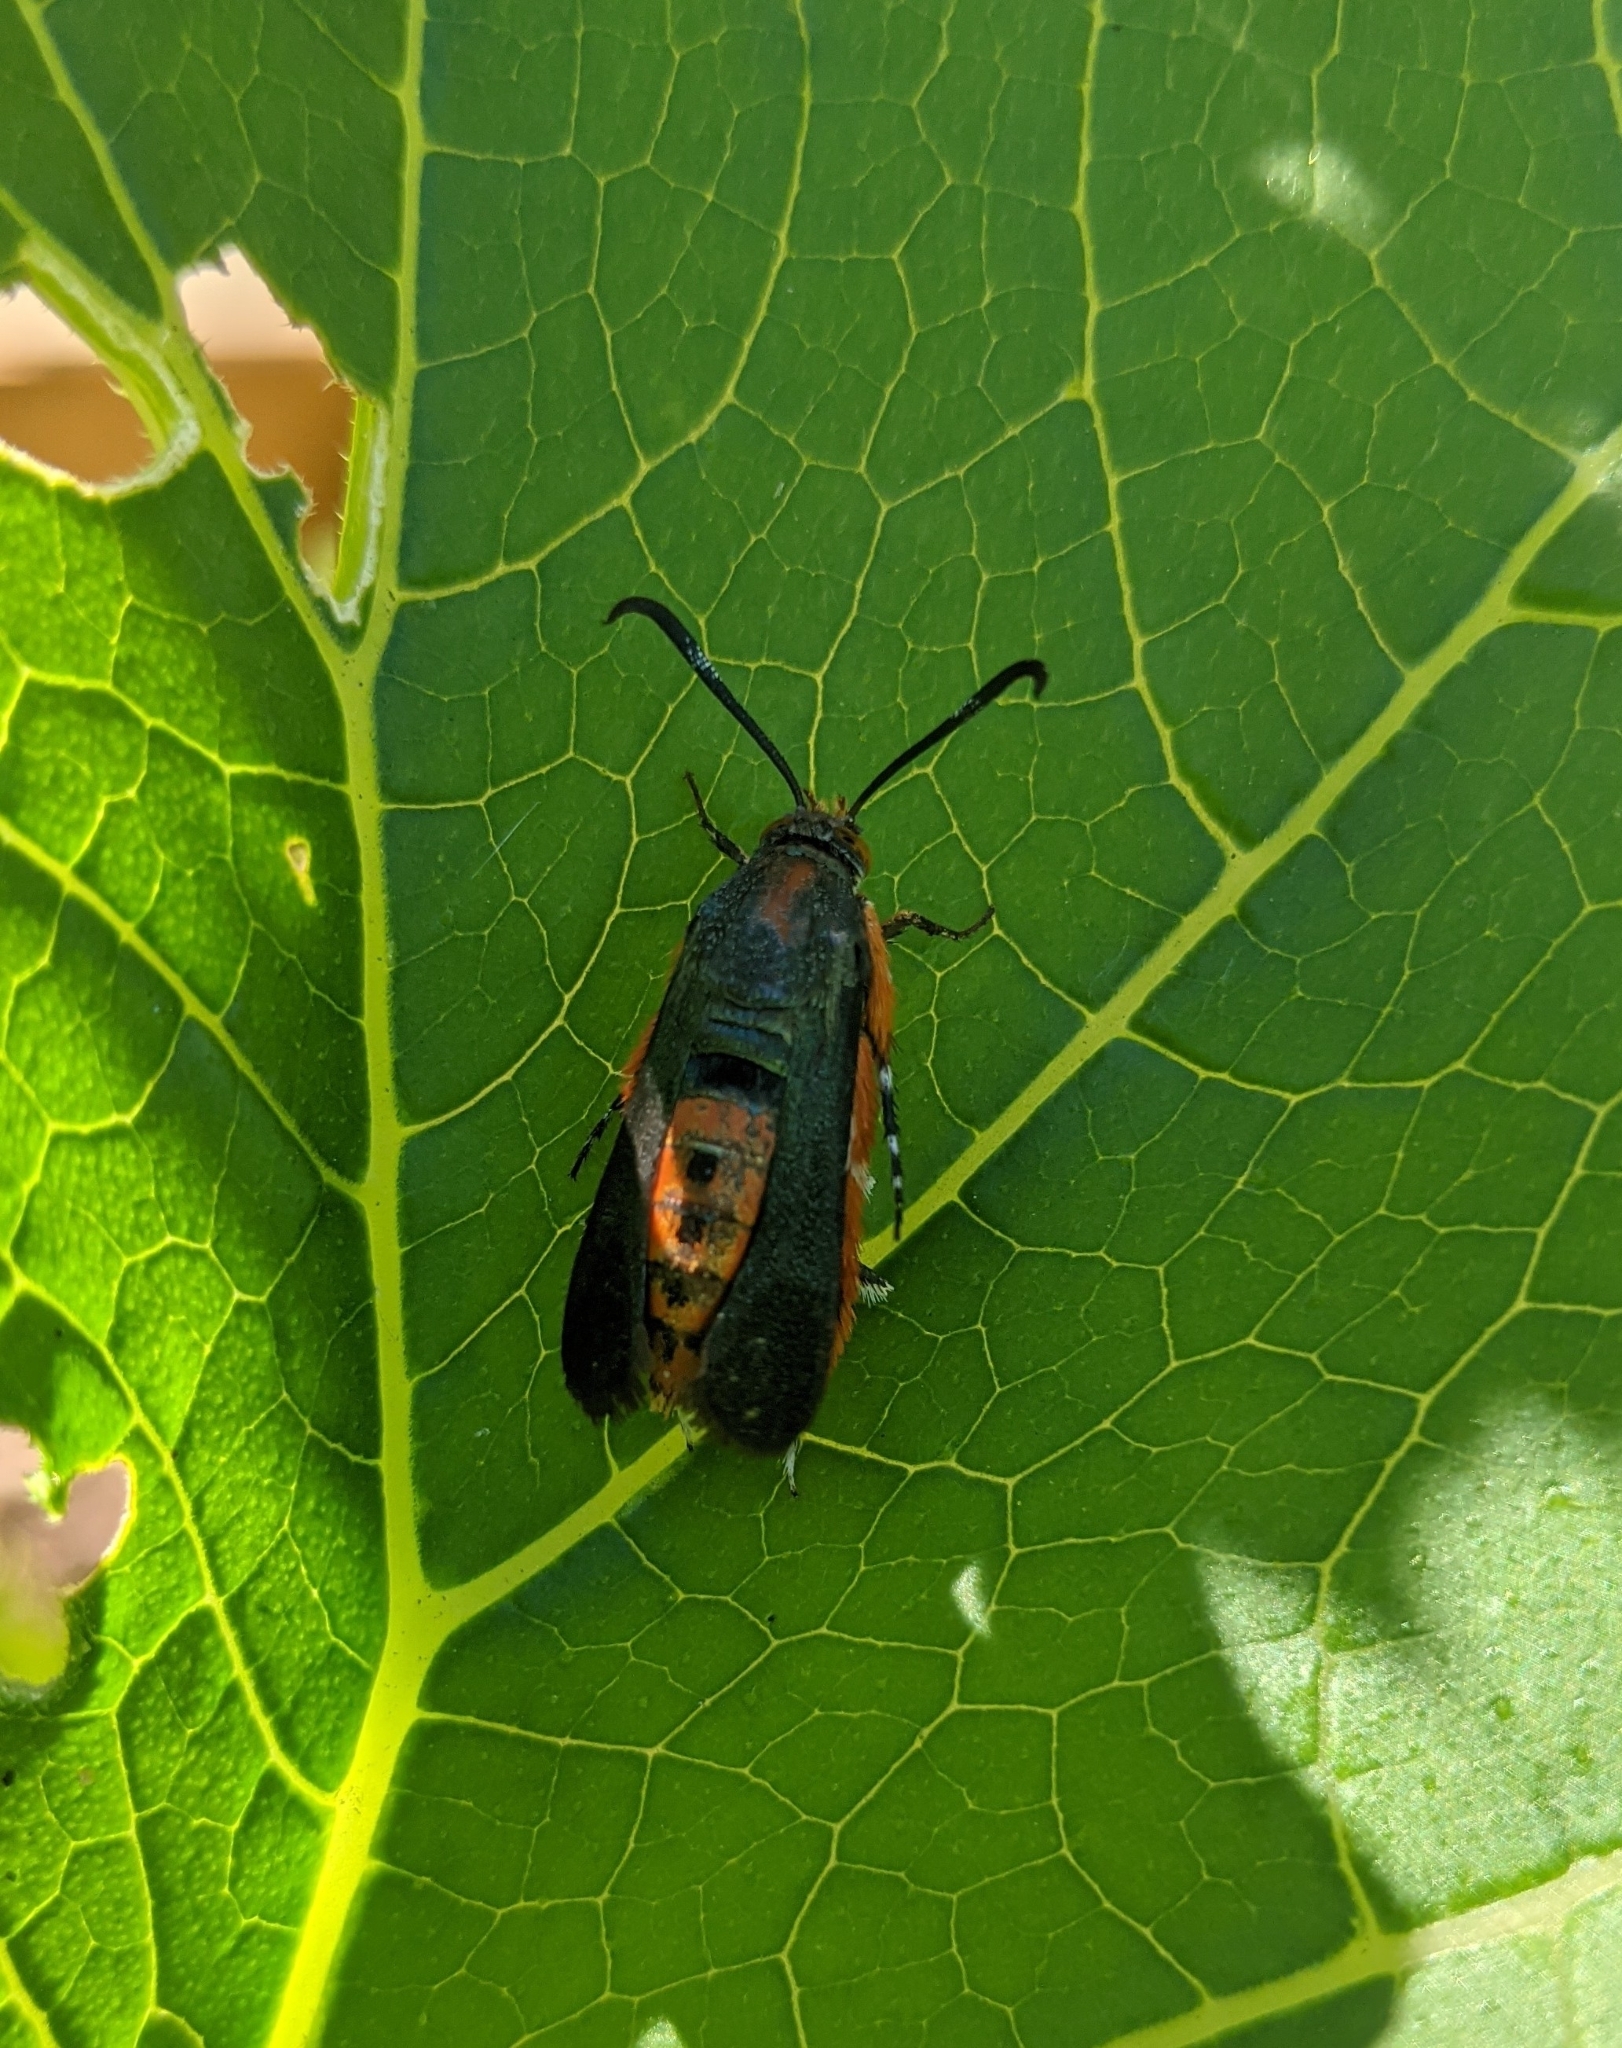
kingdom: Animalia
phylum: Arthropoda
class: Insecta
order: Lepidoptera
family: Sesiidae
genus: Eichlinia
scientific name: Eichlinia cucurbitae
